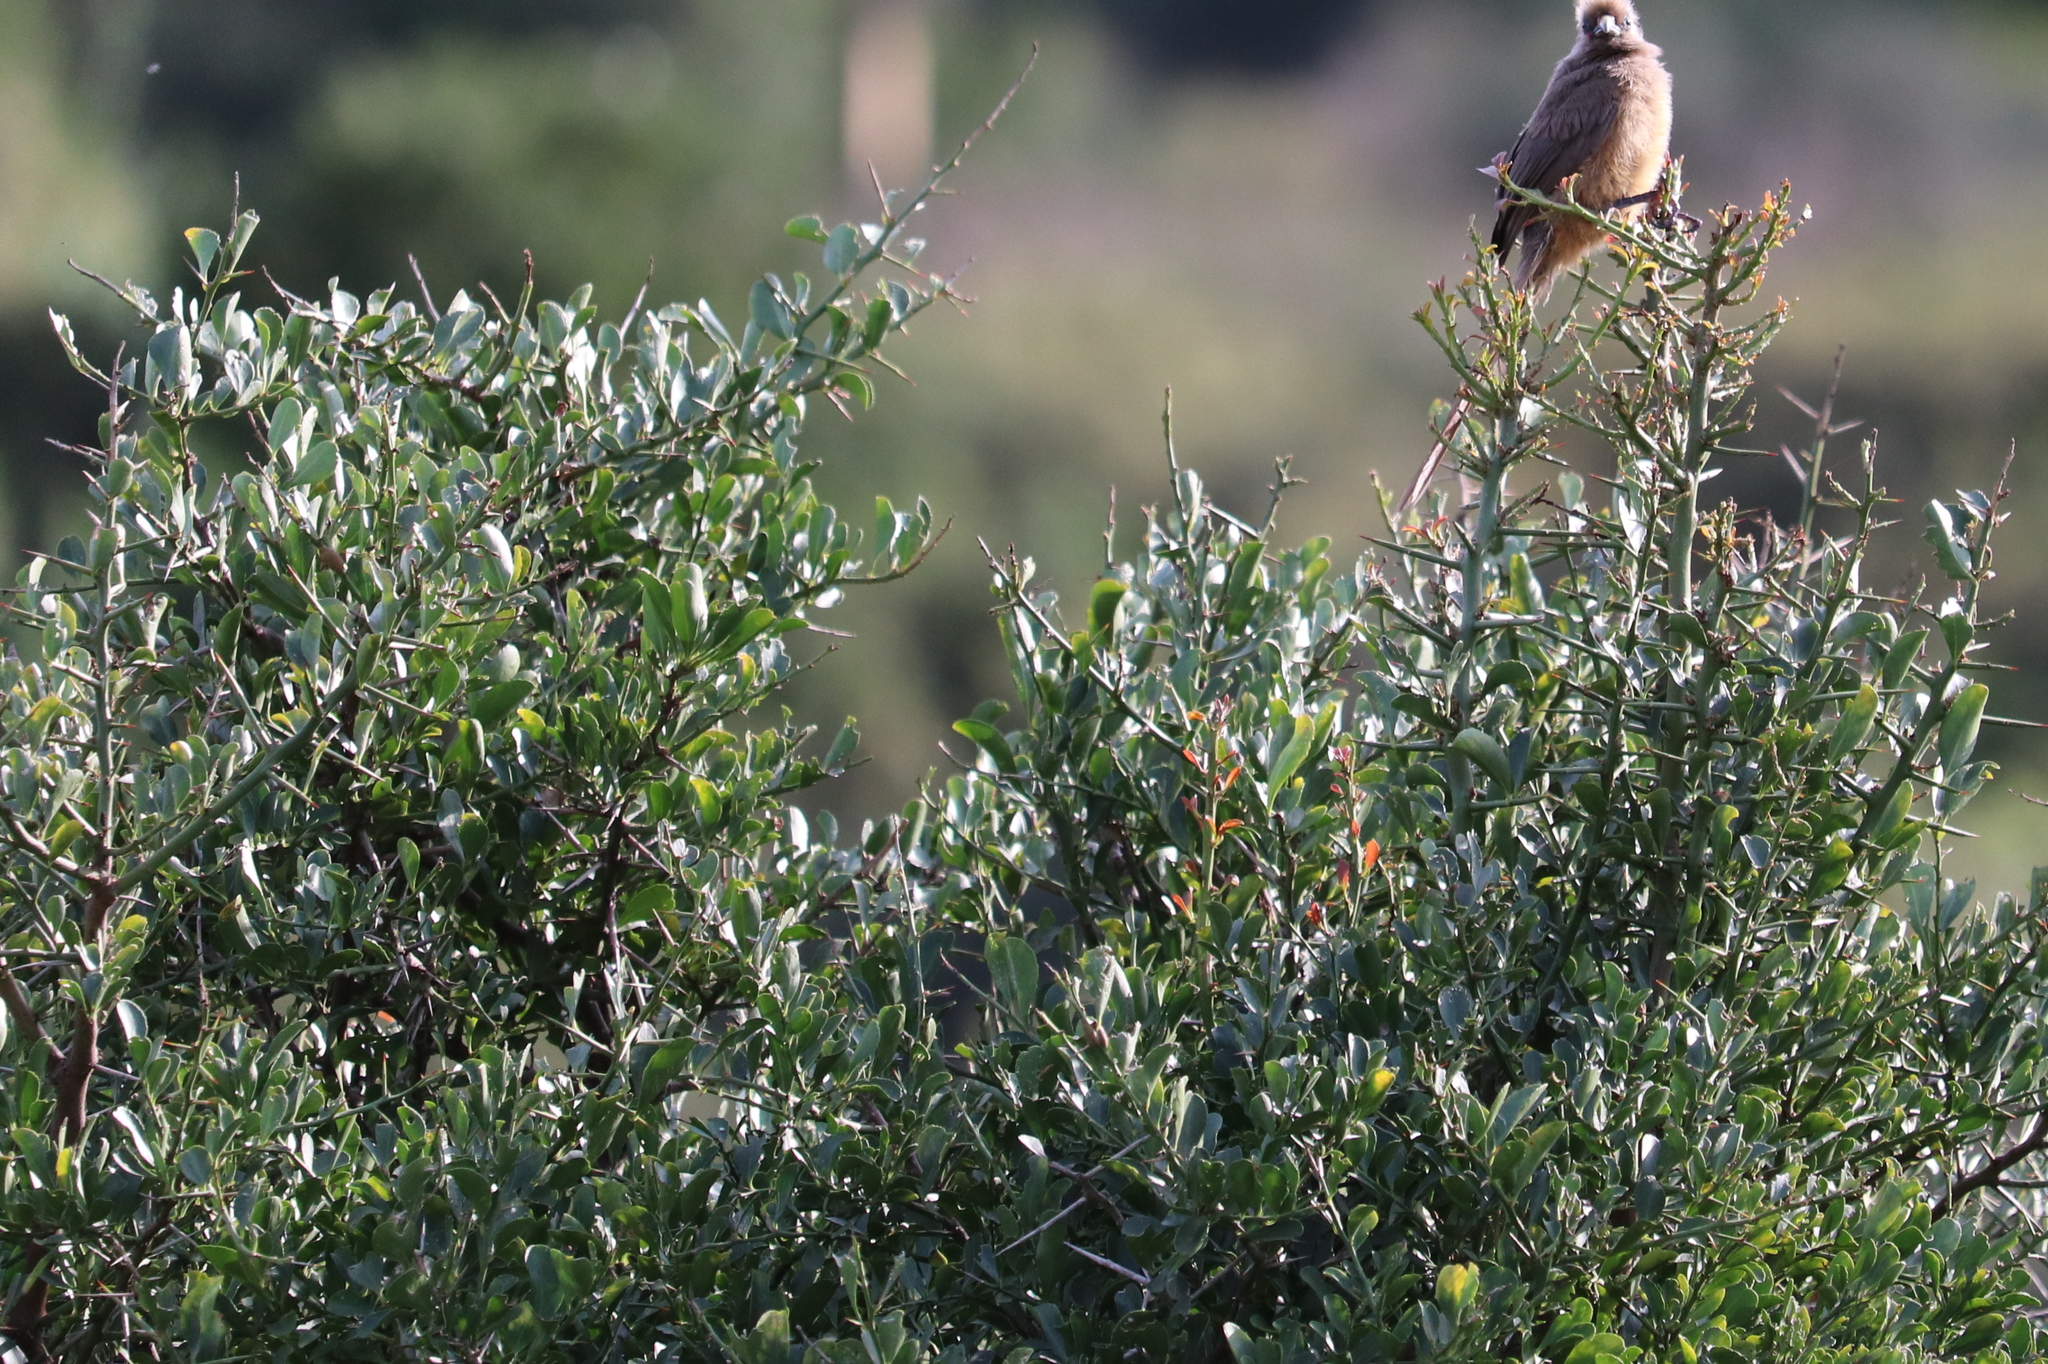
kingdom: Plantae
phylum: Tracheophyta
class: Magnoliopsida
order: Brassicales
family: Salvadoraceae
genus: Azima
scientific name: Azima tetracantha
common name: Needle bush
